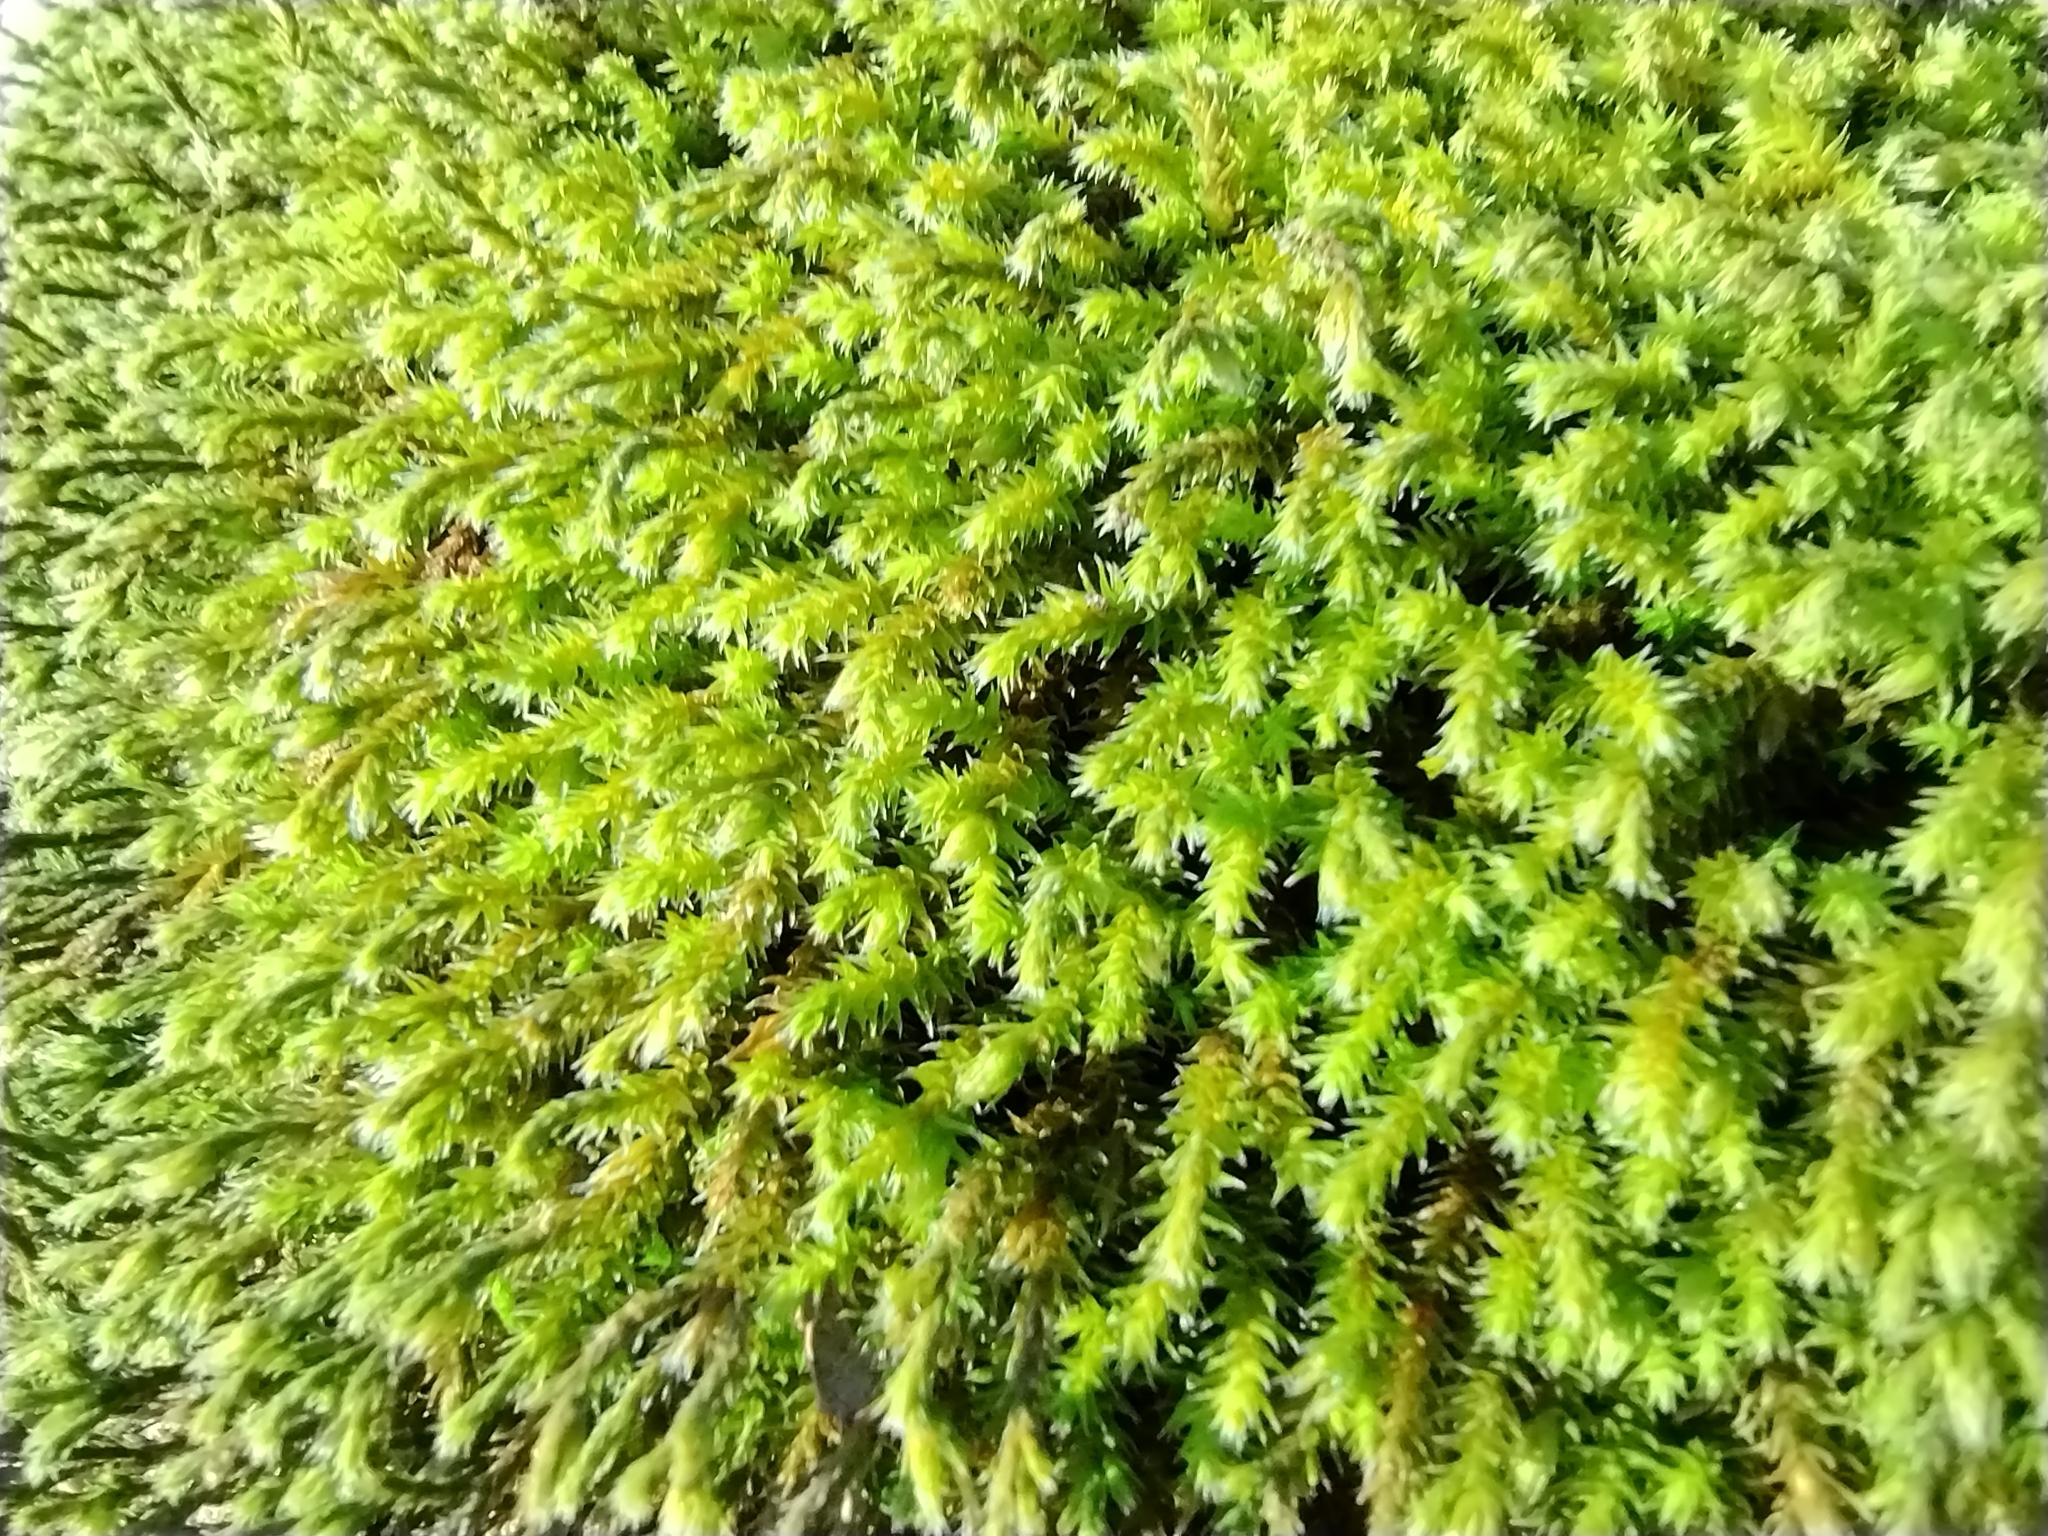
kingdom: Plantae
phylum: Bryophyta
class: Bryopsida
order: Hedwigiales
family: Hedwigiaceae
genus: Hedwigia
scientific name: Hedwigia ciliata
